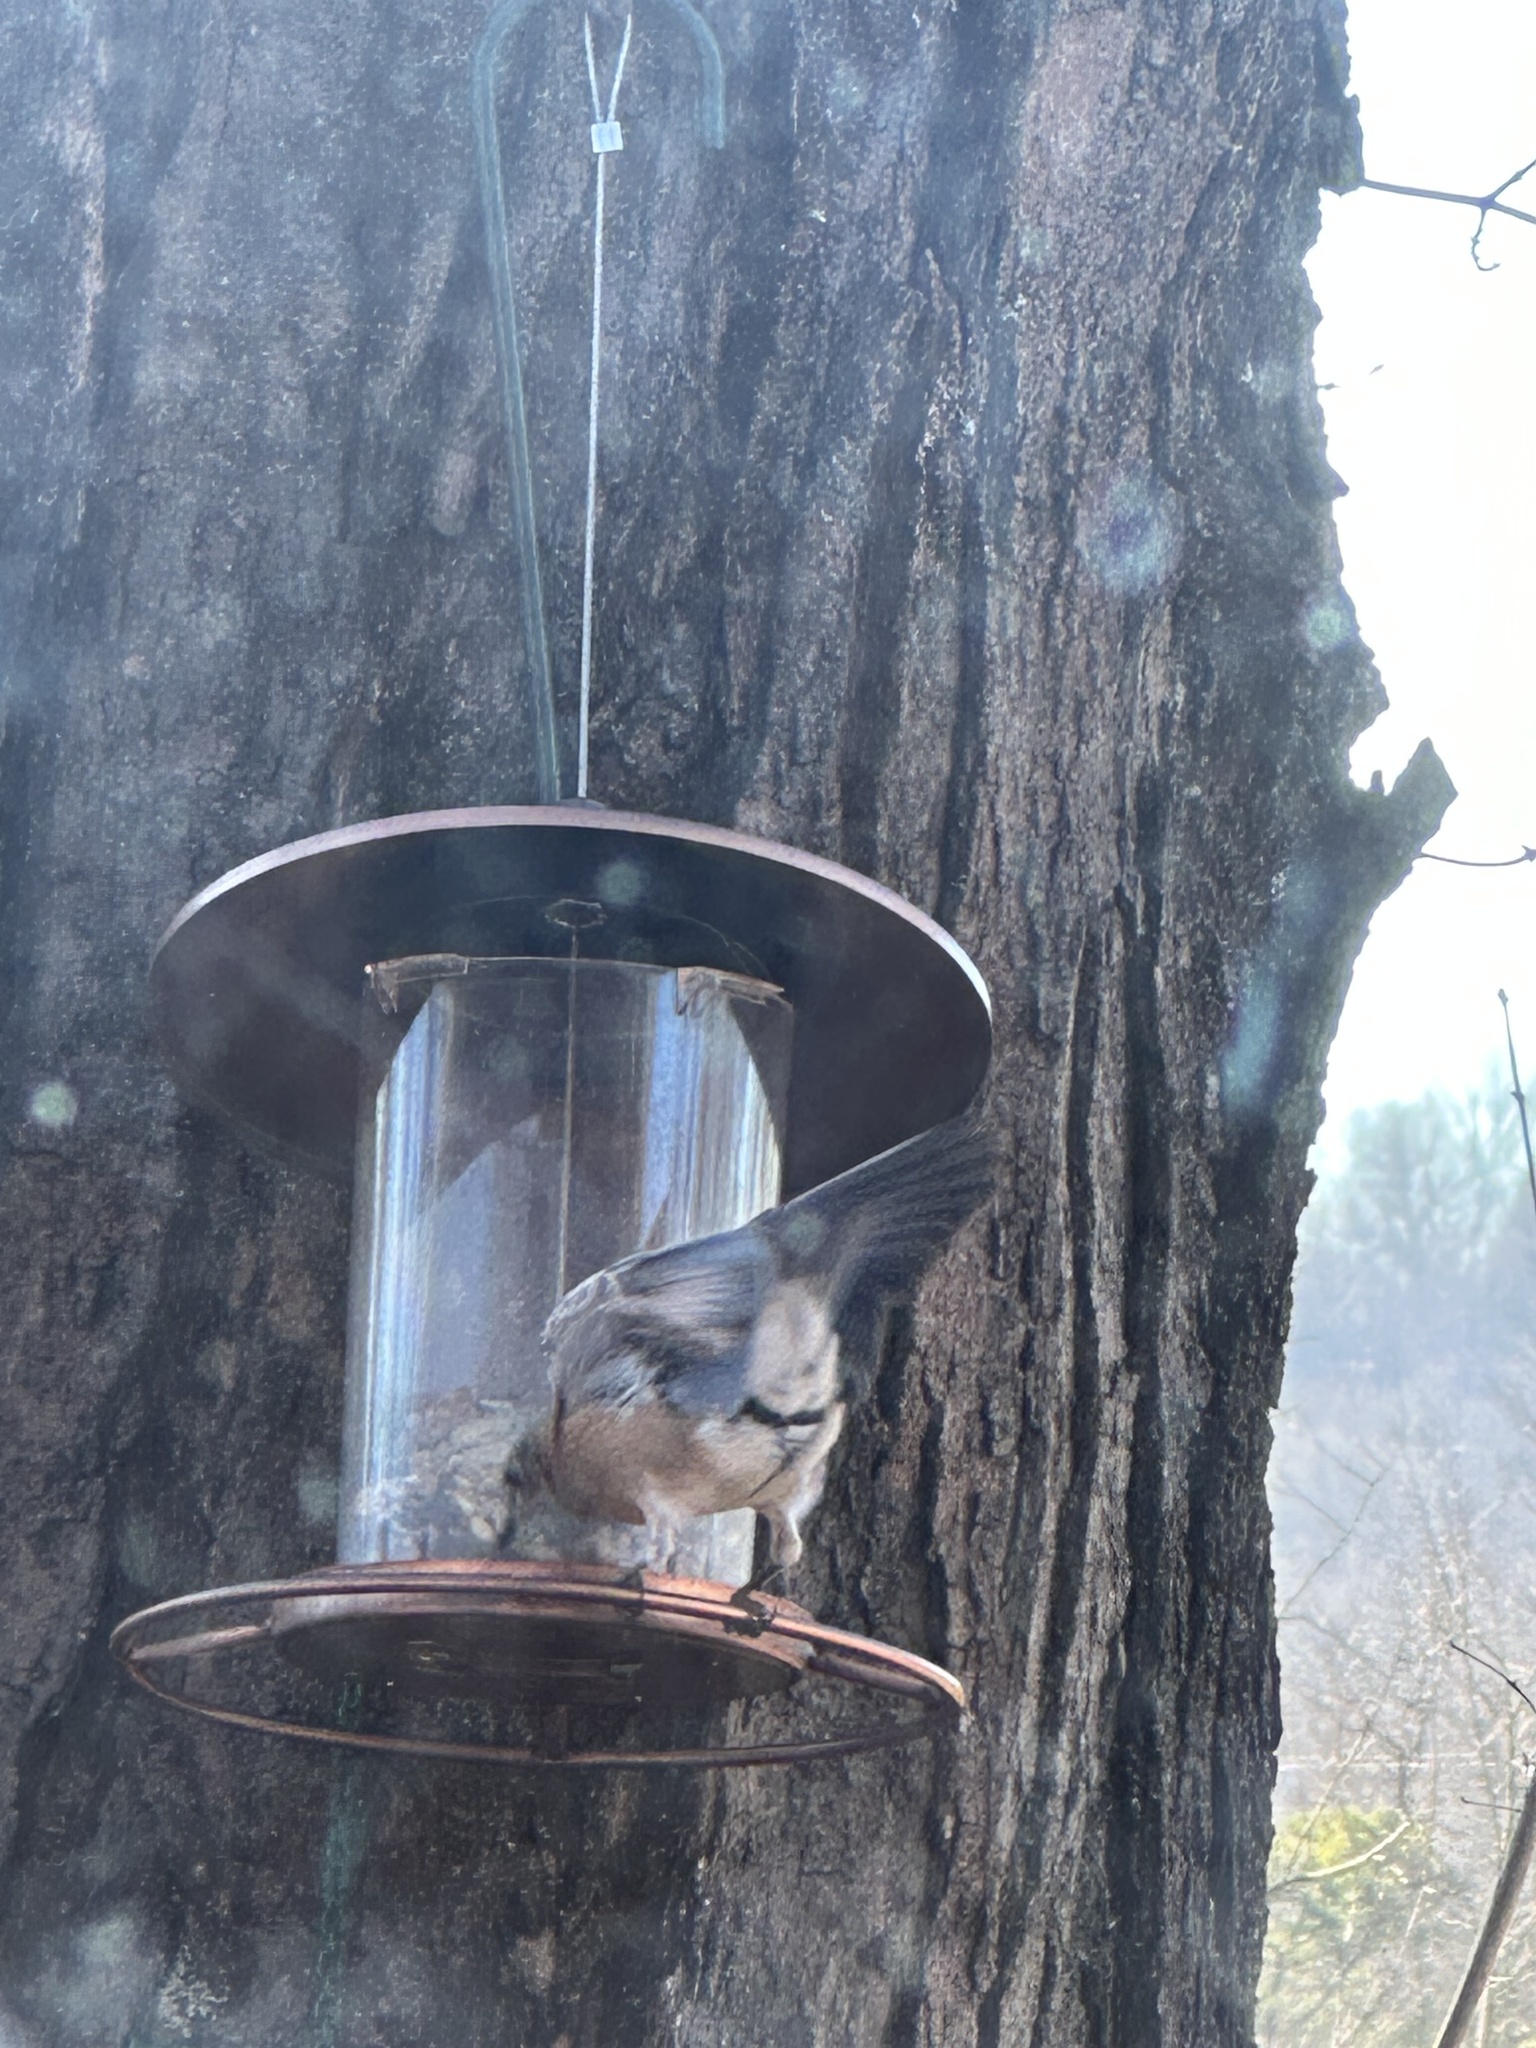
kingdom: Animalia
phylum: Chordata
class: Aves
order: Passeriformes
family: Turdidae
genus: Sialia
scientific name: Sialia sialis
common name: Eastern bluebird
